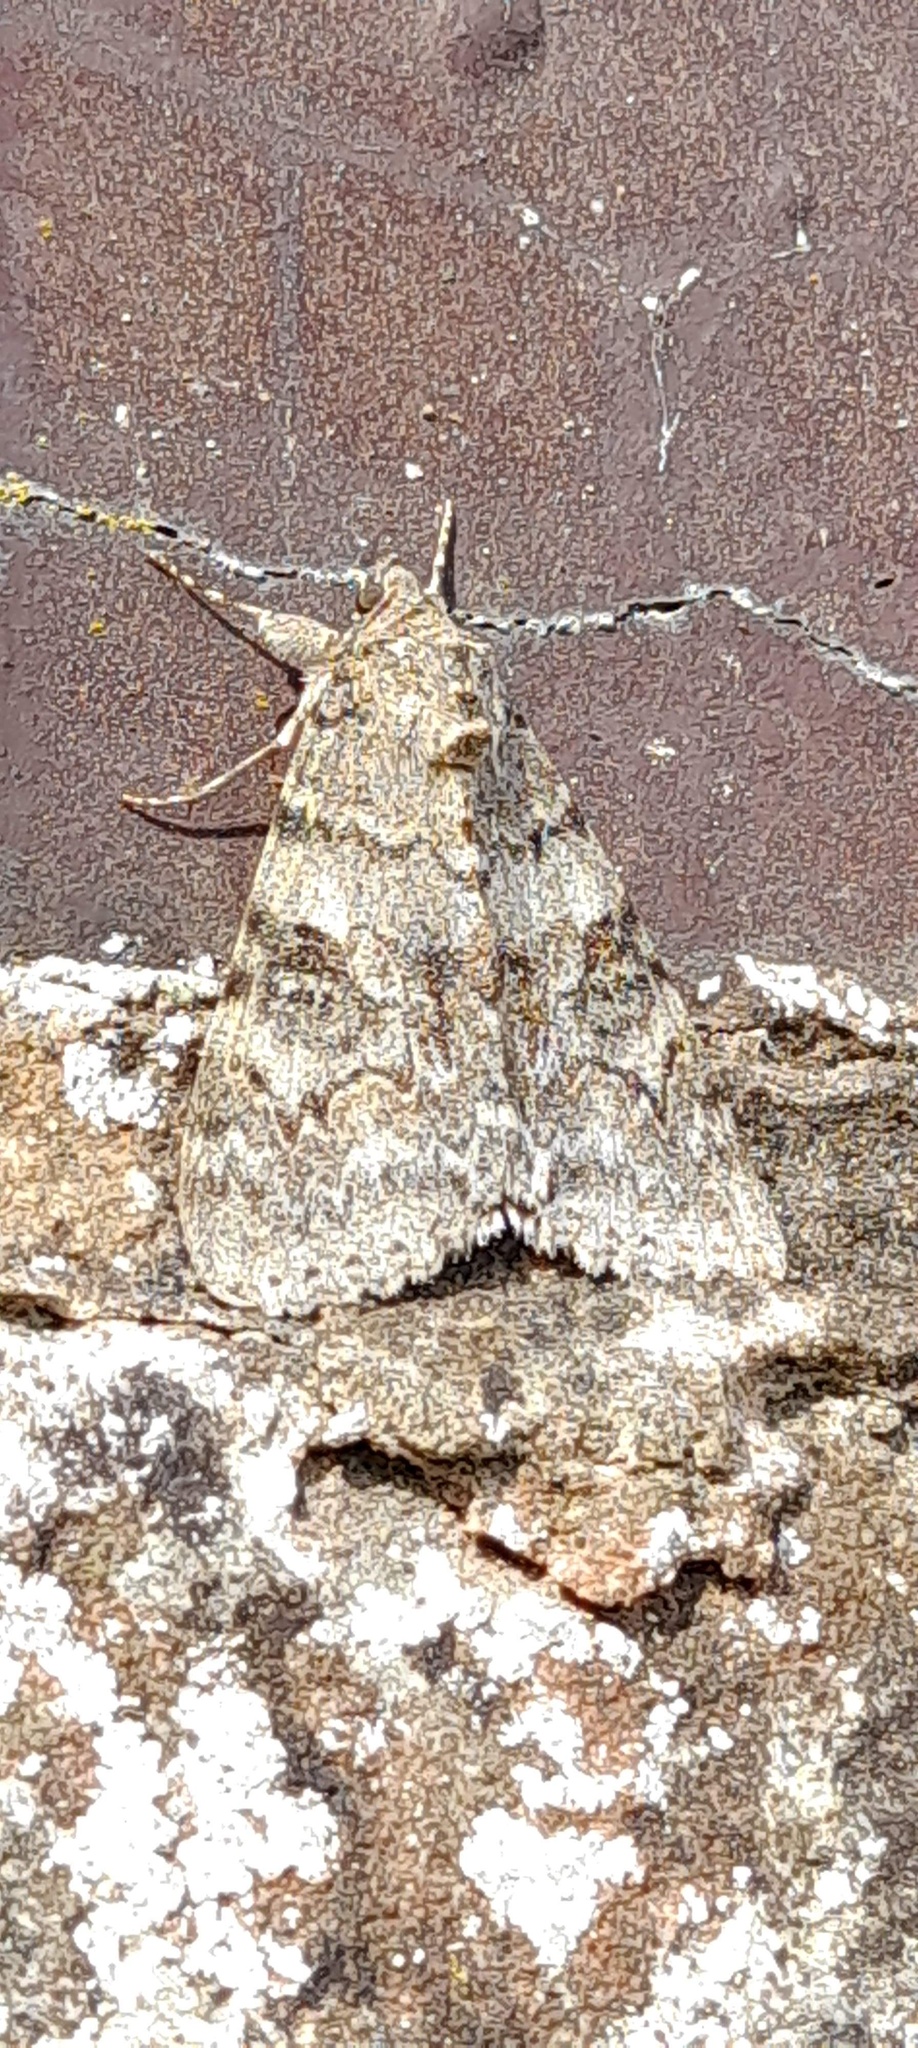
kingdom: Animalia
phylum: Arthropoda
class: Insecta
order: Lepidoptera
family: Erebidae
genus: Catocala
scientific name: Catocala nupta
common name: Red underwing
